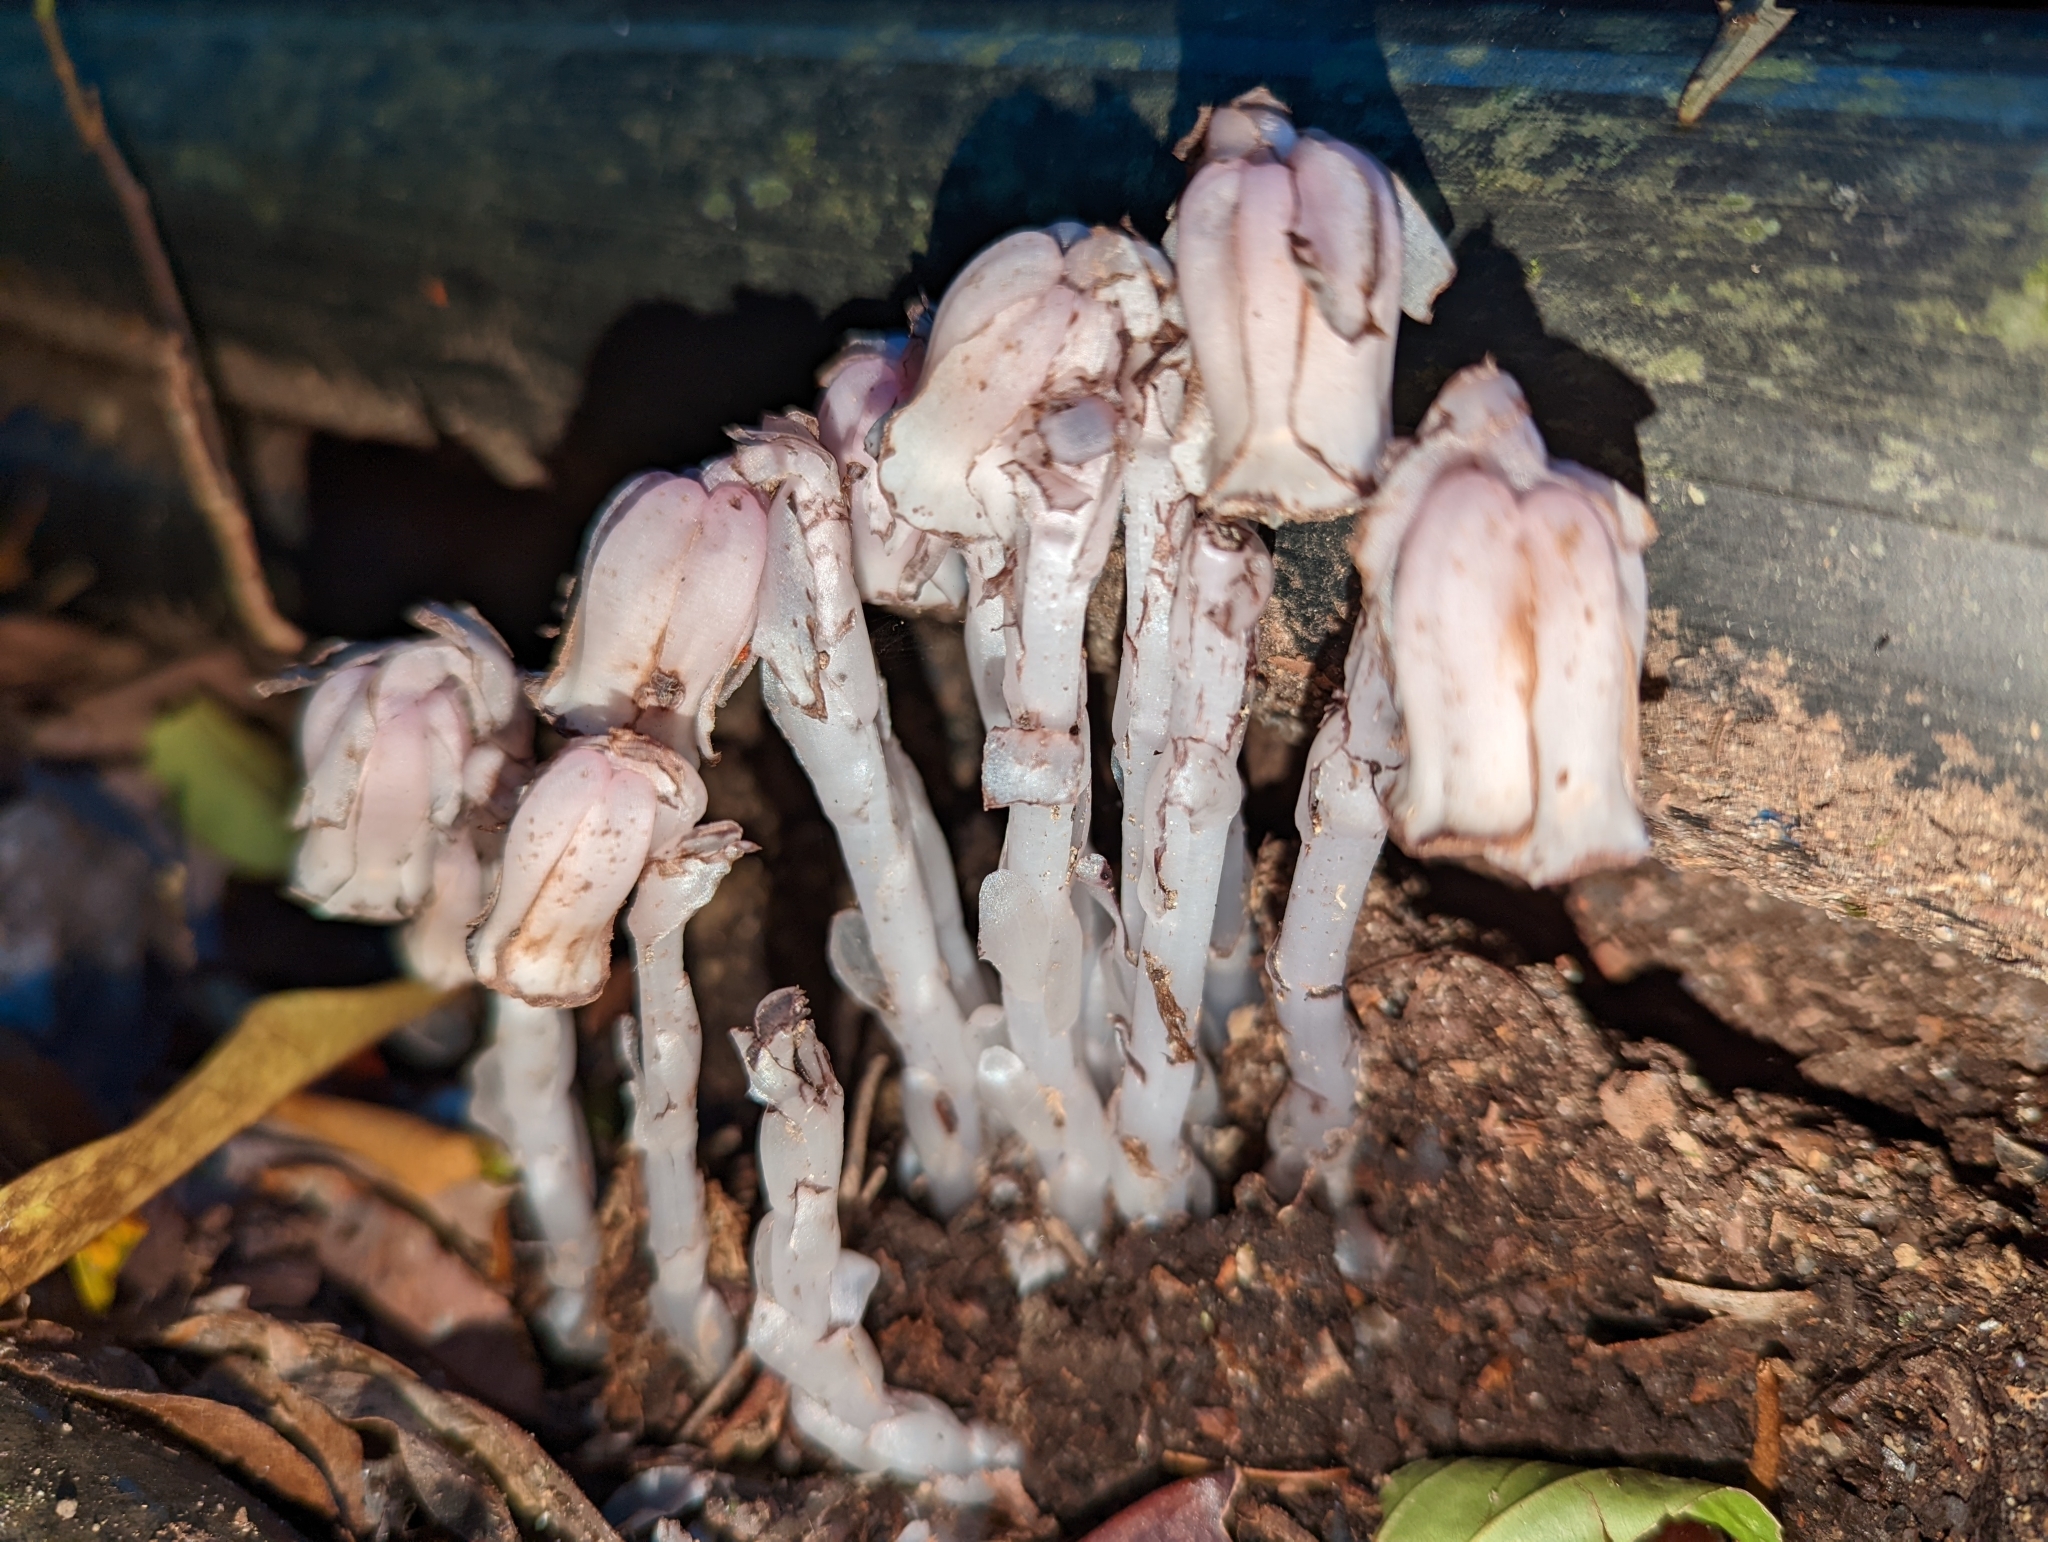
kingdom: Plantae
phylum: Tracheophyta
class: Magnoliopsida
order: Ericales
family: Ericaceae
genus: Monotropa
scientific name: Monotropa uniflora
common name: Convulsion root
